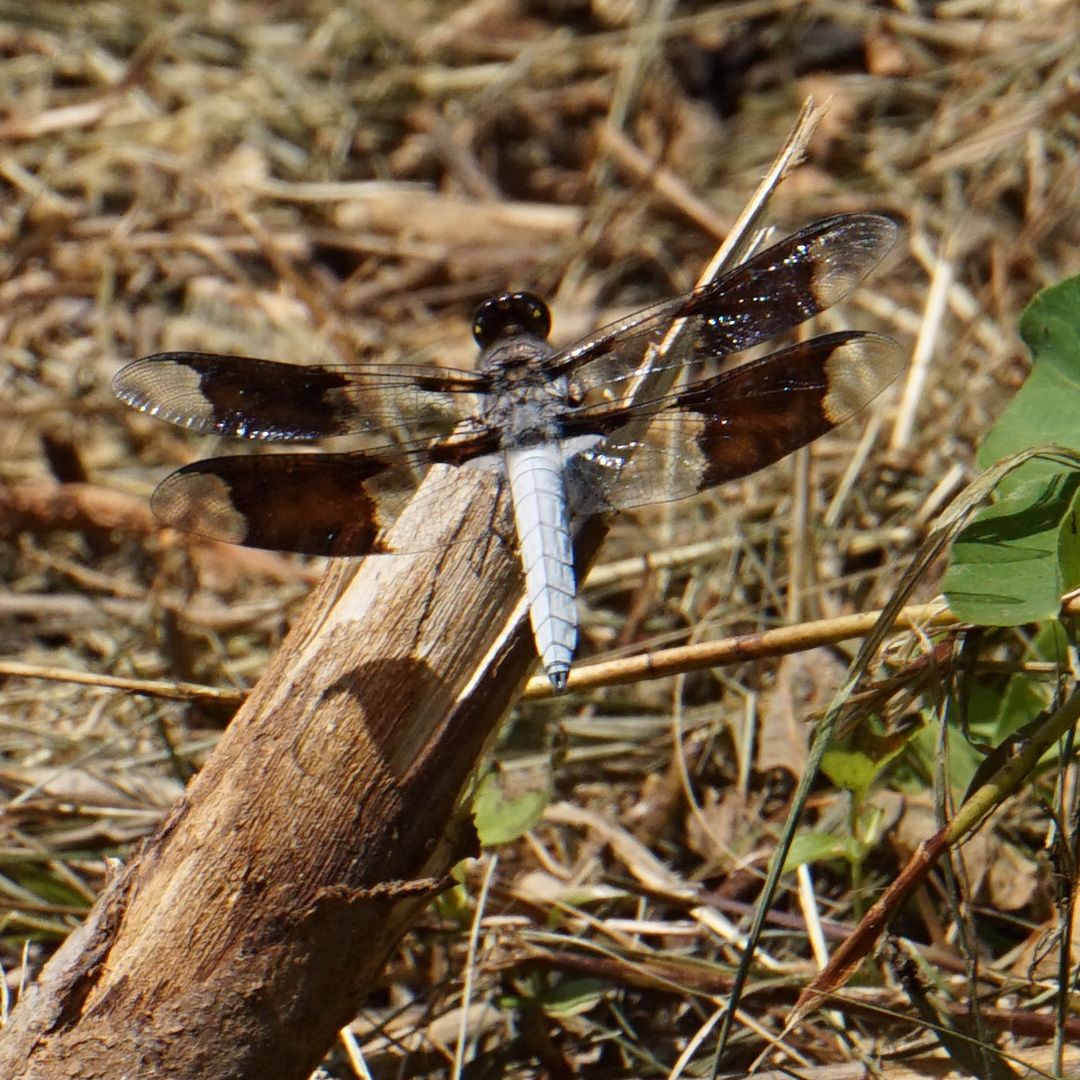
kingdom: Animalia
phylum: Arthropoda
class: Insecta
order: Odonata
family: Libellulidae
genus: Plathemis
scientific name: Plathemis lydia
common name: Common whitetail
